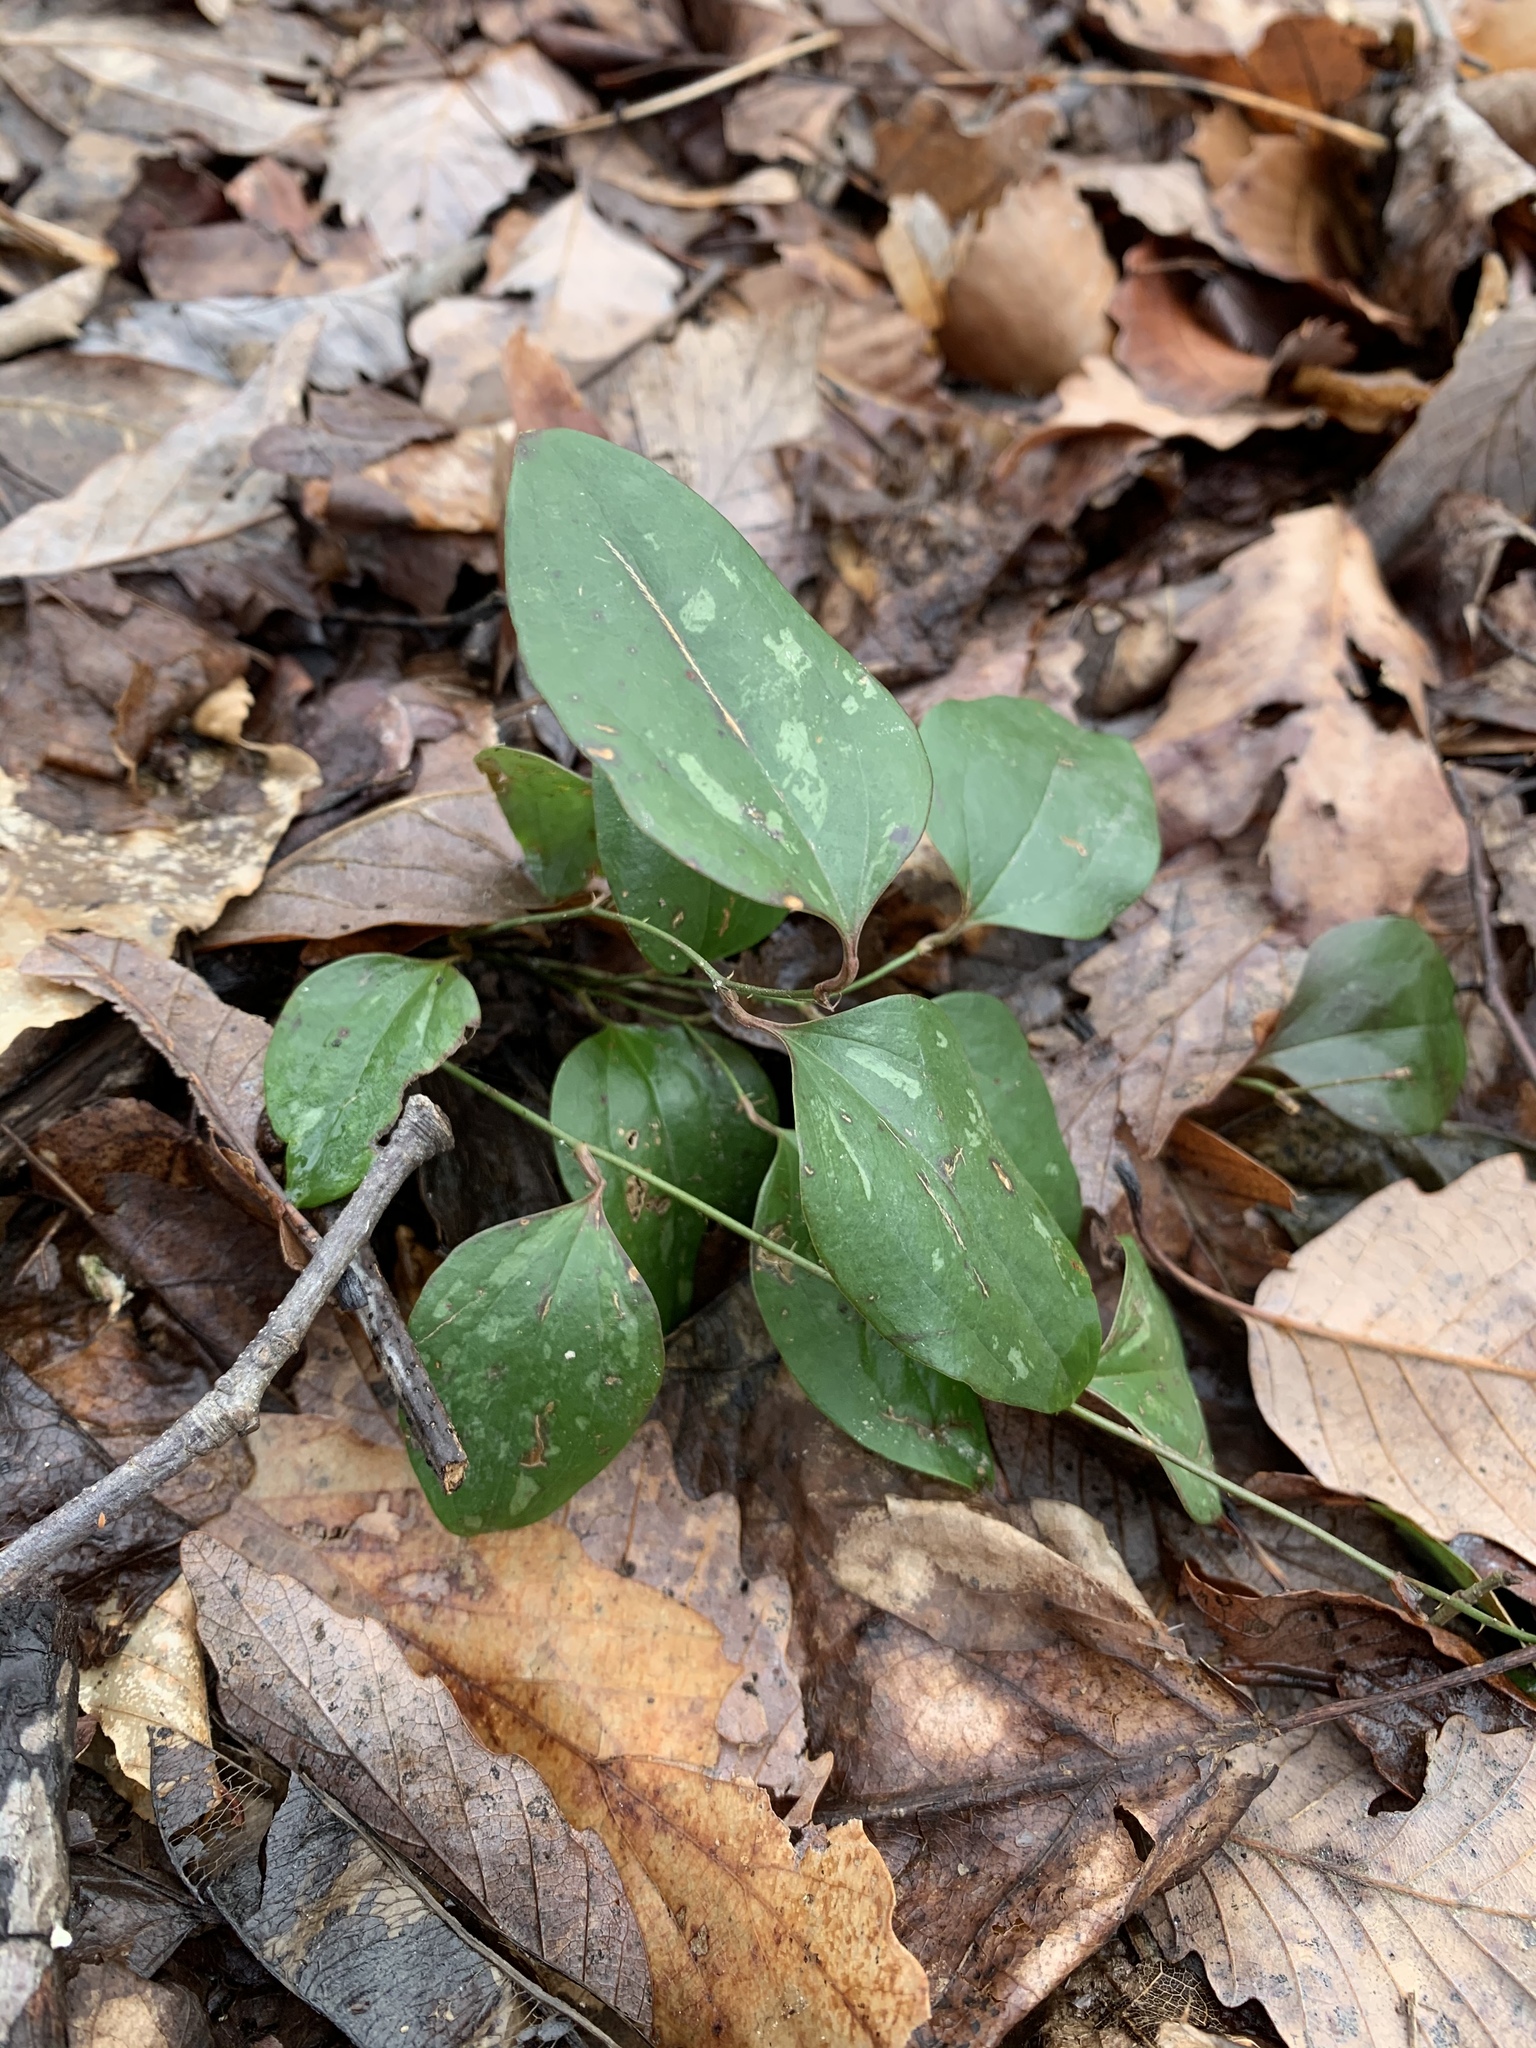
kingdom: Plantae
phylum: Tracheophyta
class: Liliopsida
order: Liliales
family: Smilacaceae
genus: Smilax
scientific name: Smilax glauca
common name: Cat greenbrier
